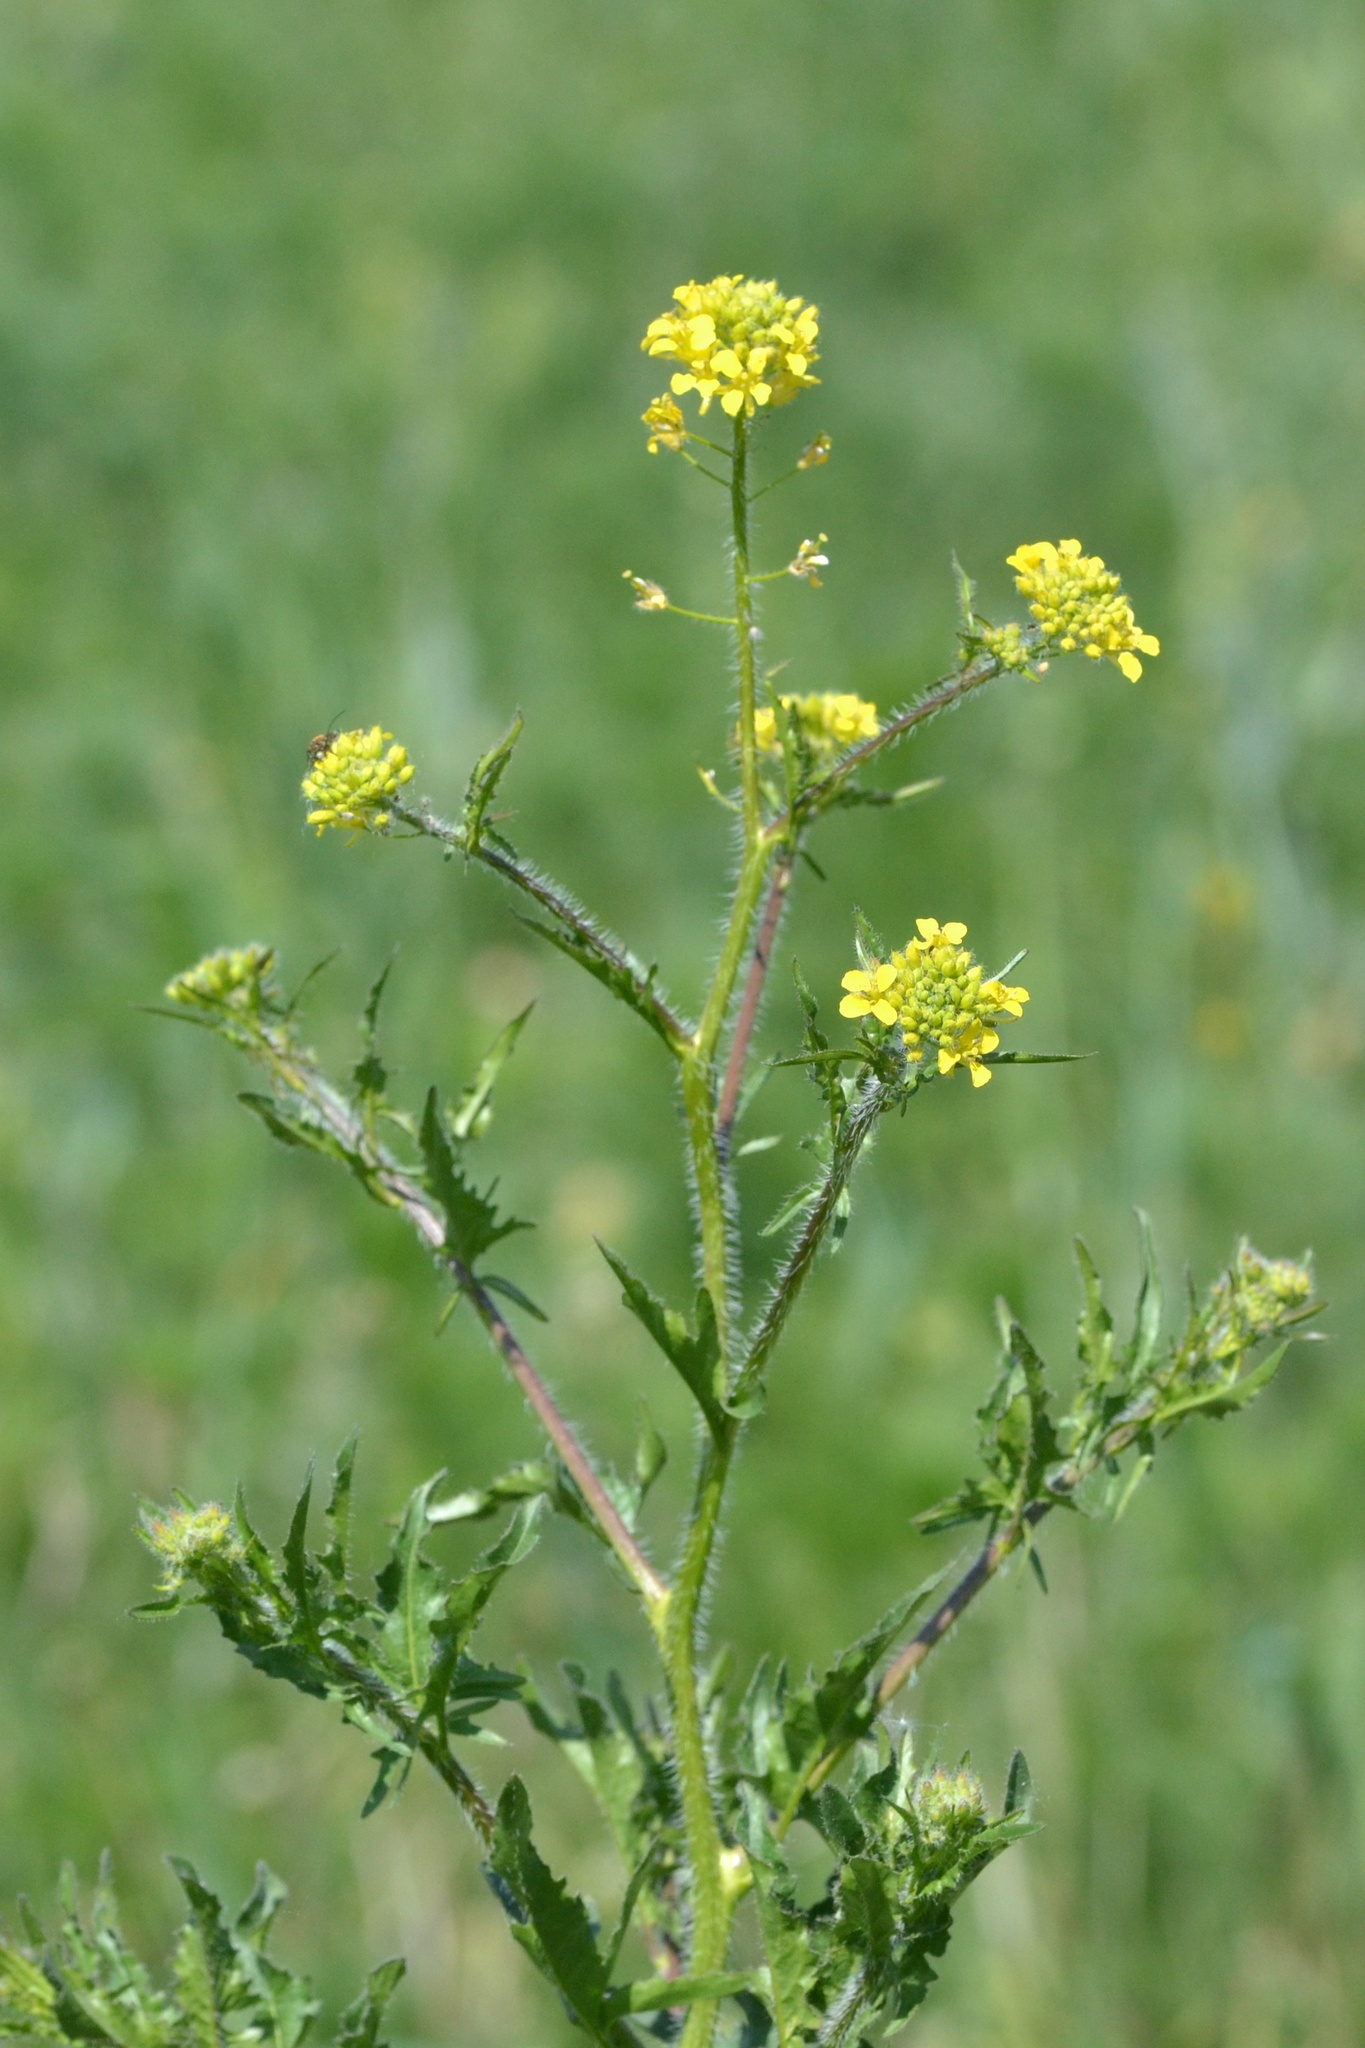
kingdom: Plantae
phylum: Tracheophyta
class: Magnoliopsida
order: Brassicales
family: Brassicaceae
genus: Sisymbrium
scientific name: Sisymbrium loeselii
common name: False london-rocket
